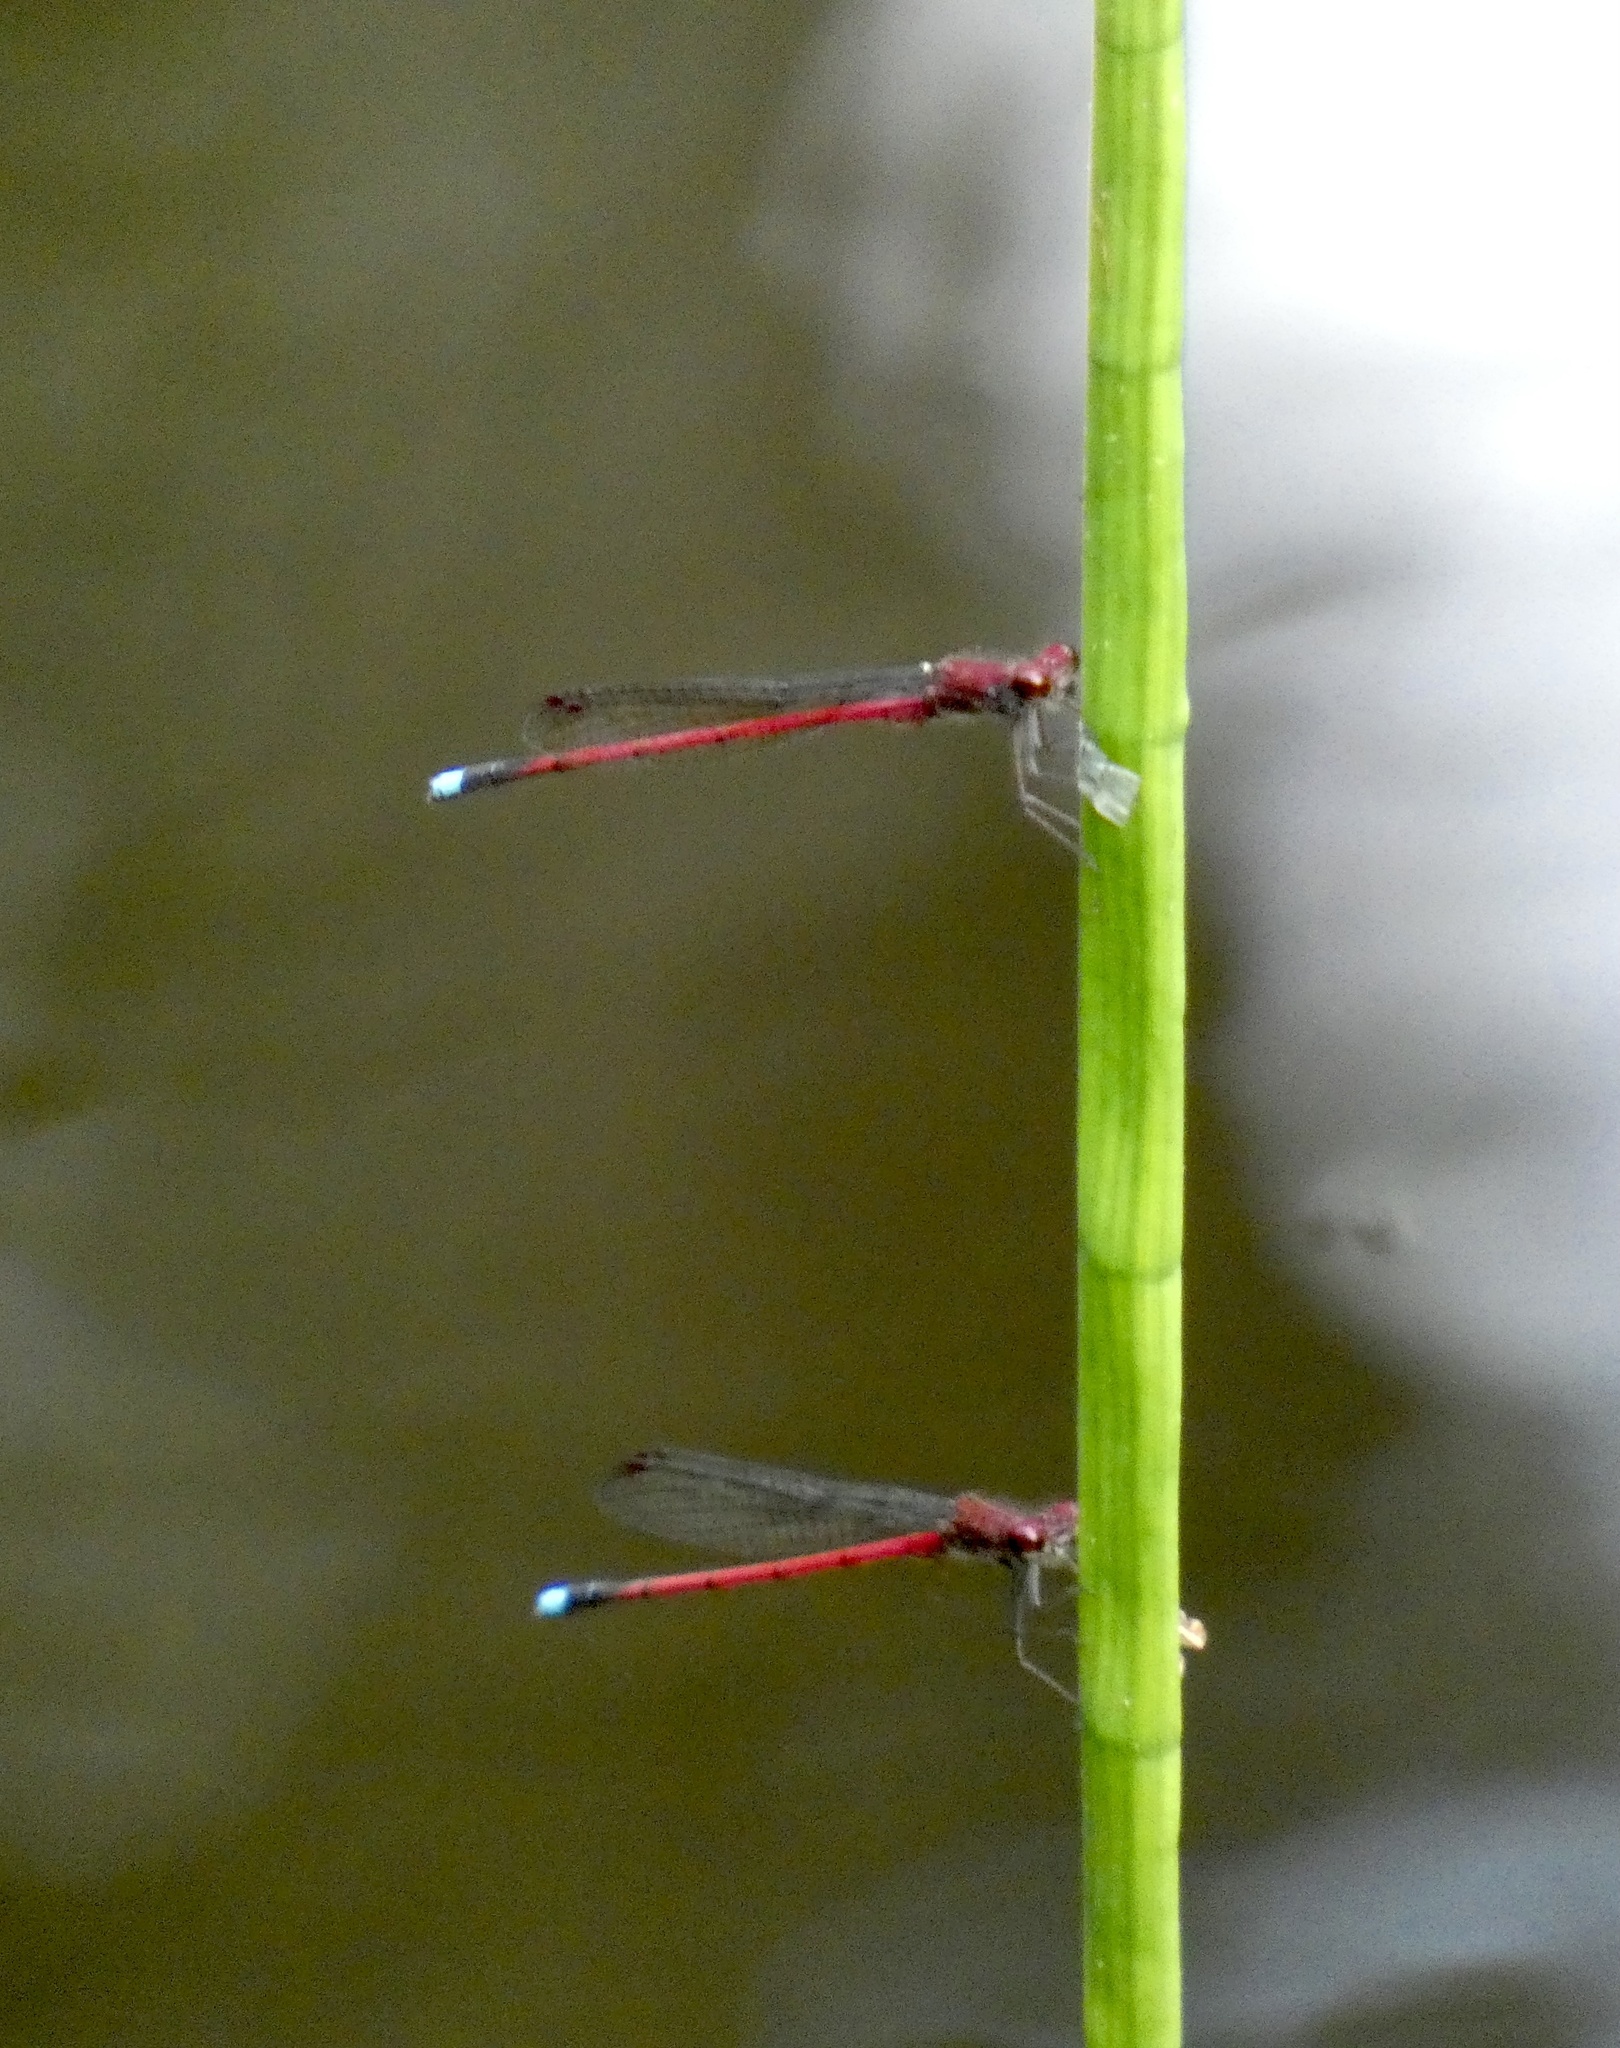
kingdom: Animalia
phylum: Arthropoda
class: Insecta
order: Odonata
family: Coenagrionidae
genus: Oxyagrion
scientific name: Oxyagrion simile
